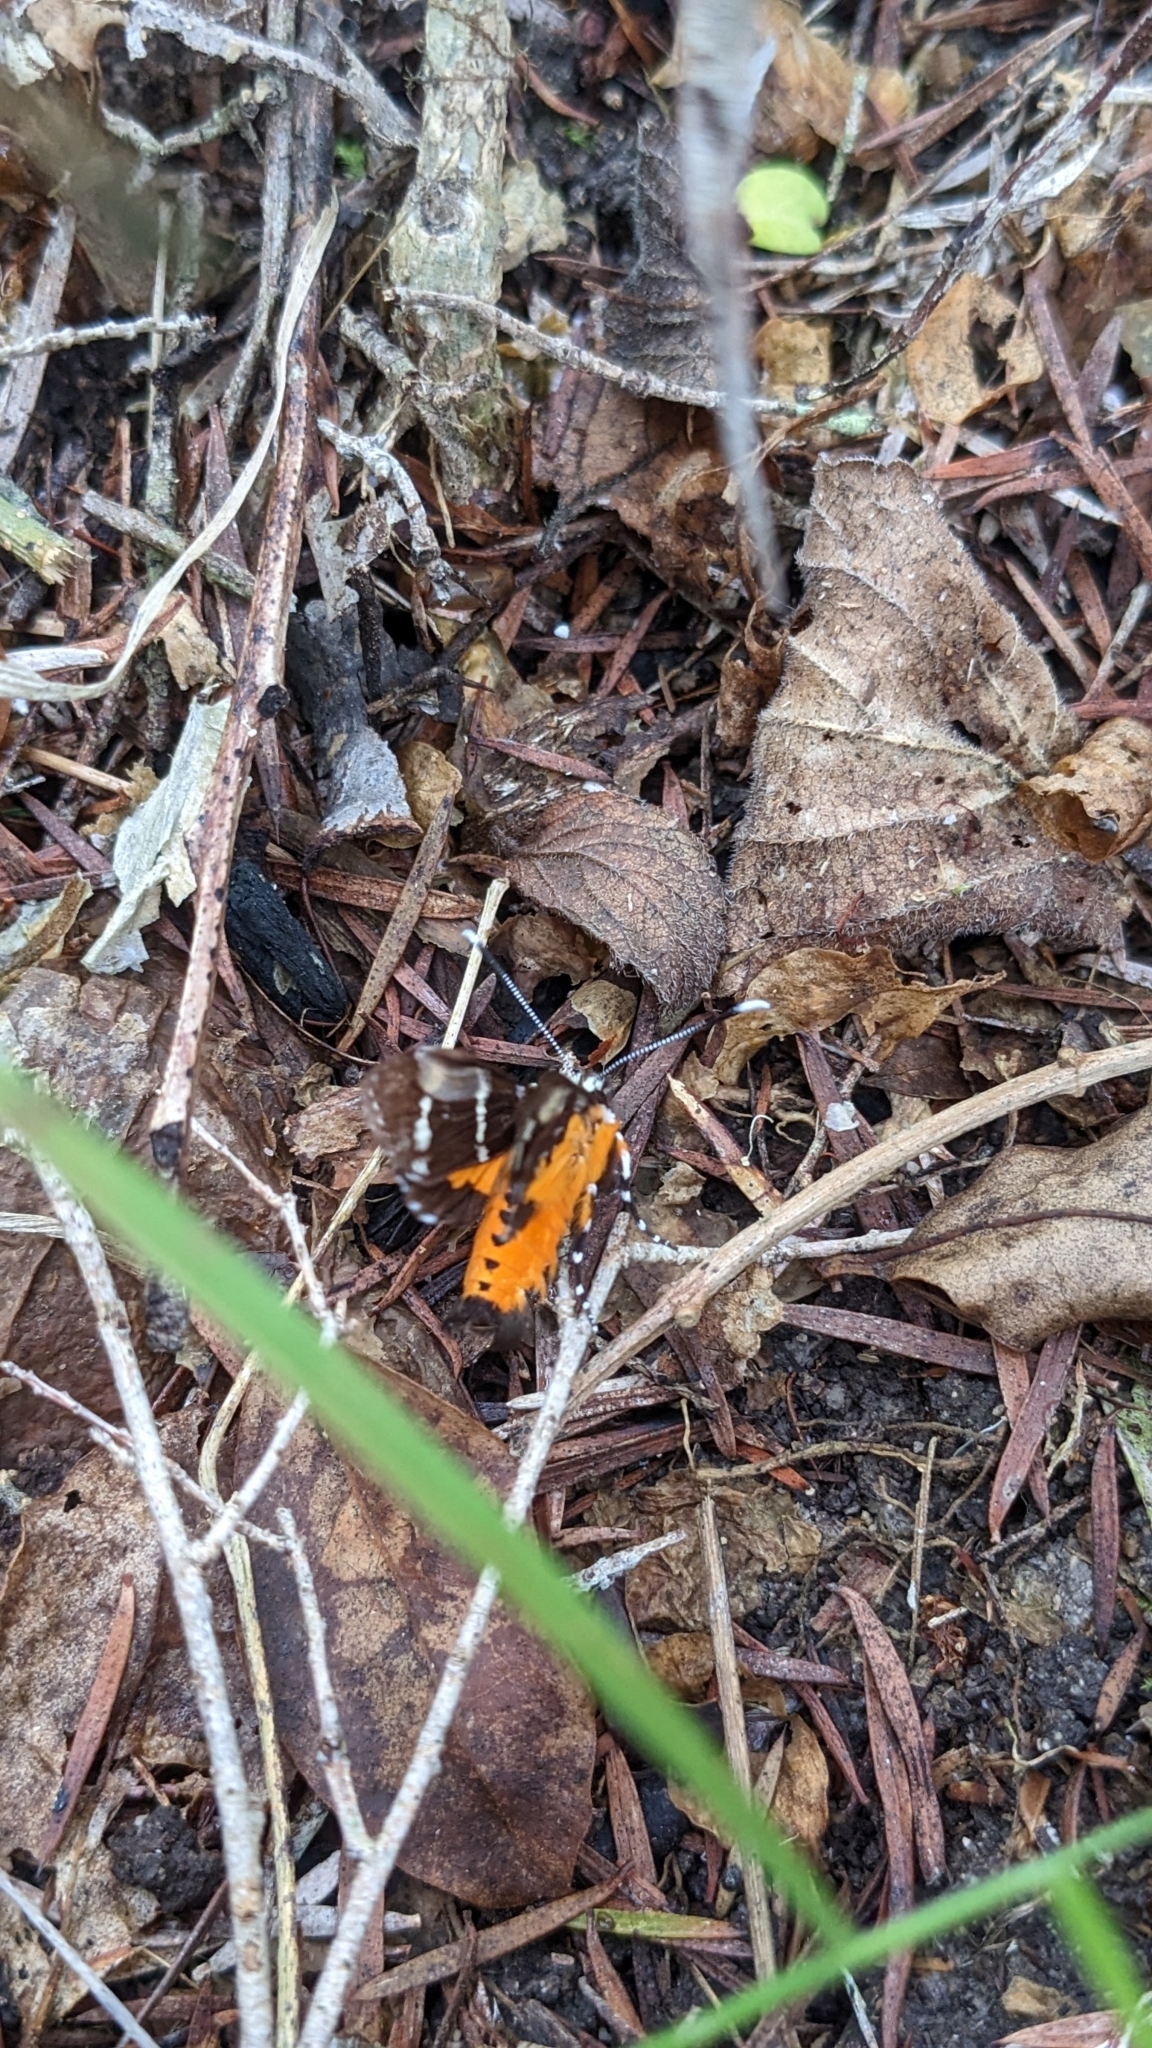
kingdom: Animalia
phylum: Arthropoda
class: Insecta
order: Lepidoptera
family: Noctuidae
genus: Hecatesia
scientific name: Hecatesia fenestrata
